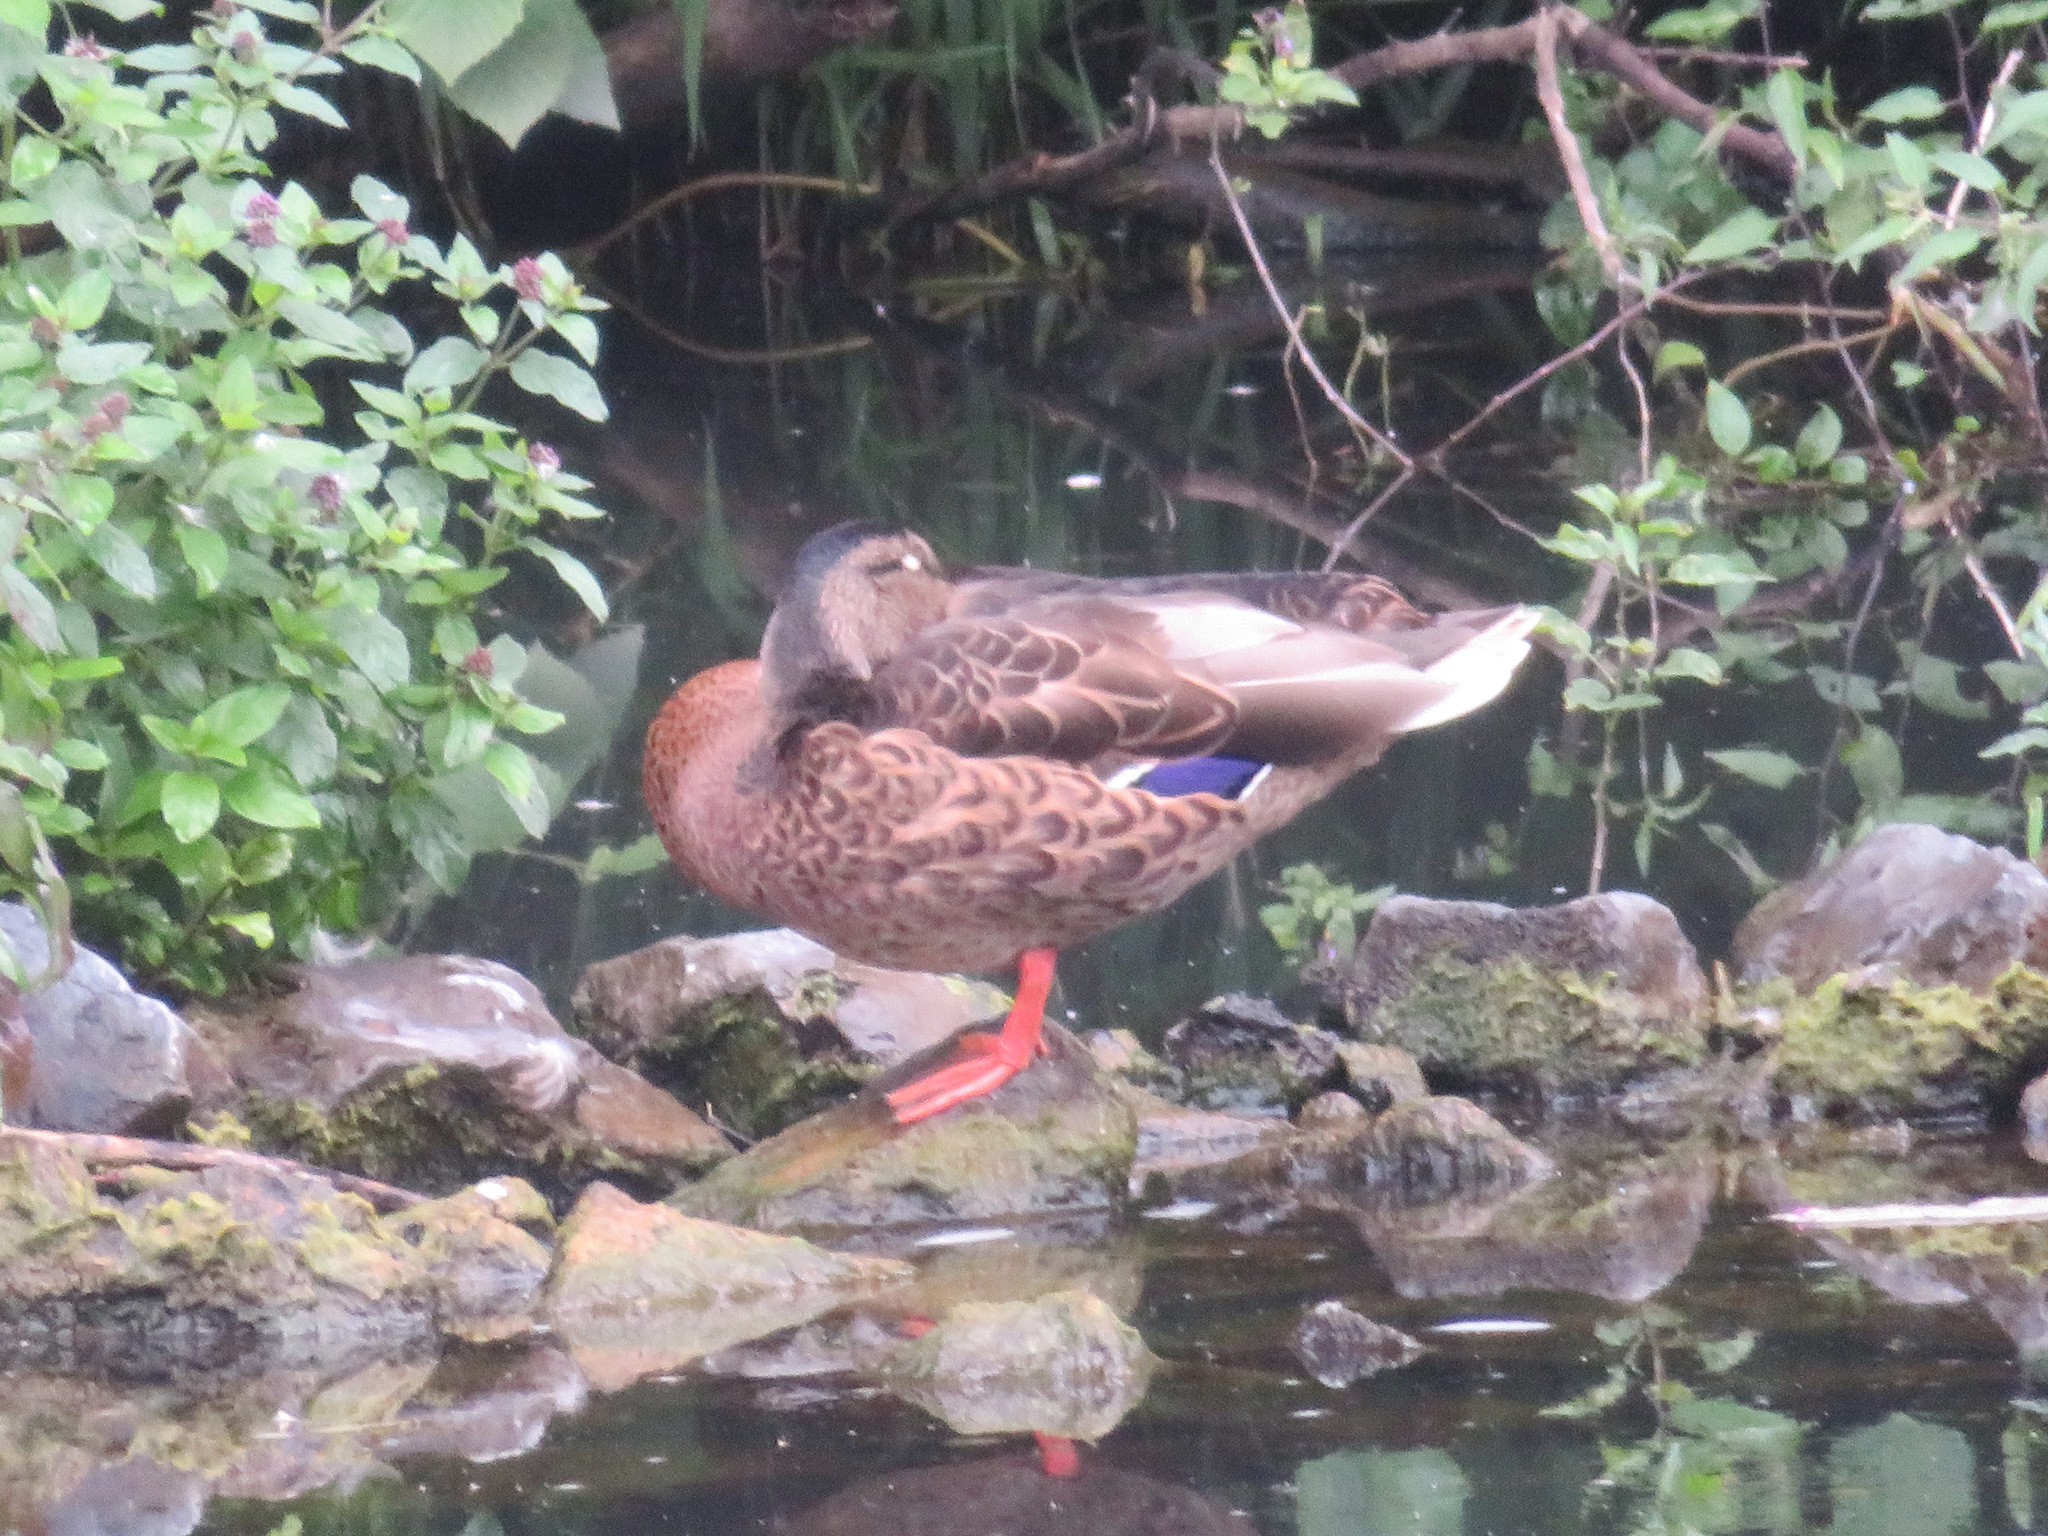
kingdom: Animalia
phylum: Chordata
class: Aves
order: Anseriformes
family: Anatidae
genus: Anas
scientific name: Anas platyrhynchos
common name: Mallard
